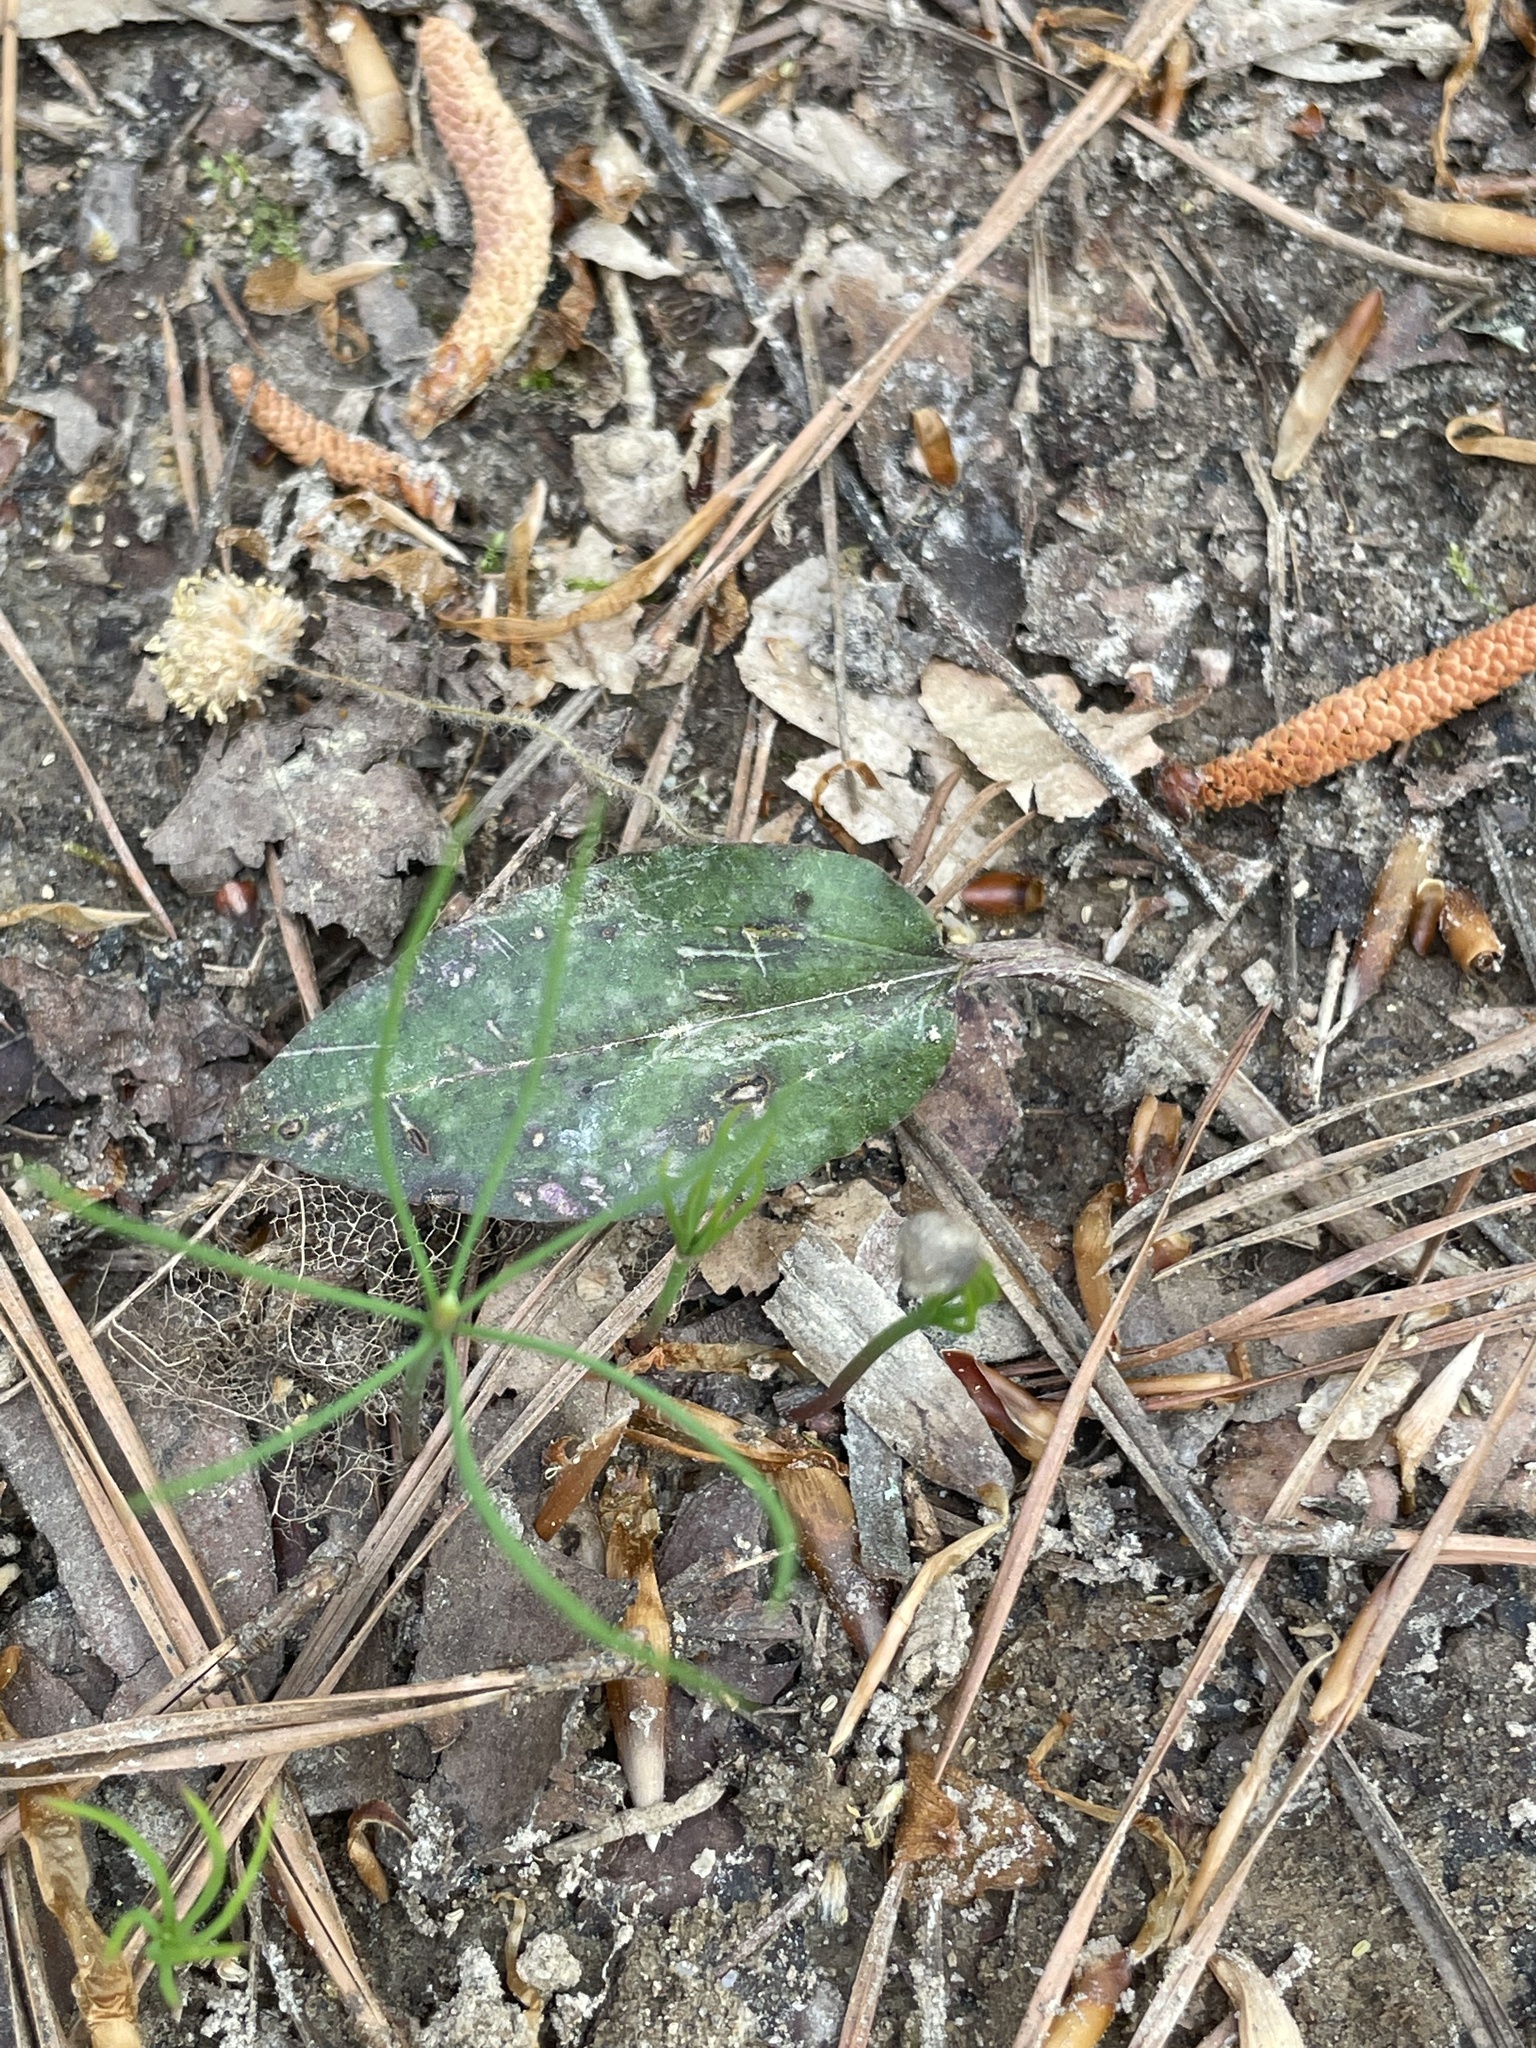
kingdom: Plantae
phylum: Tracheophyta
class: Liliopsida
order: Asparagales
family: Orchidaceae
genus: Tipularia
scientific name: Tipularia discolor
